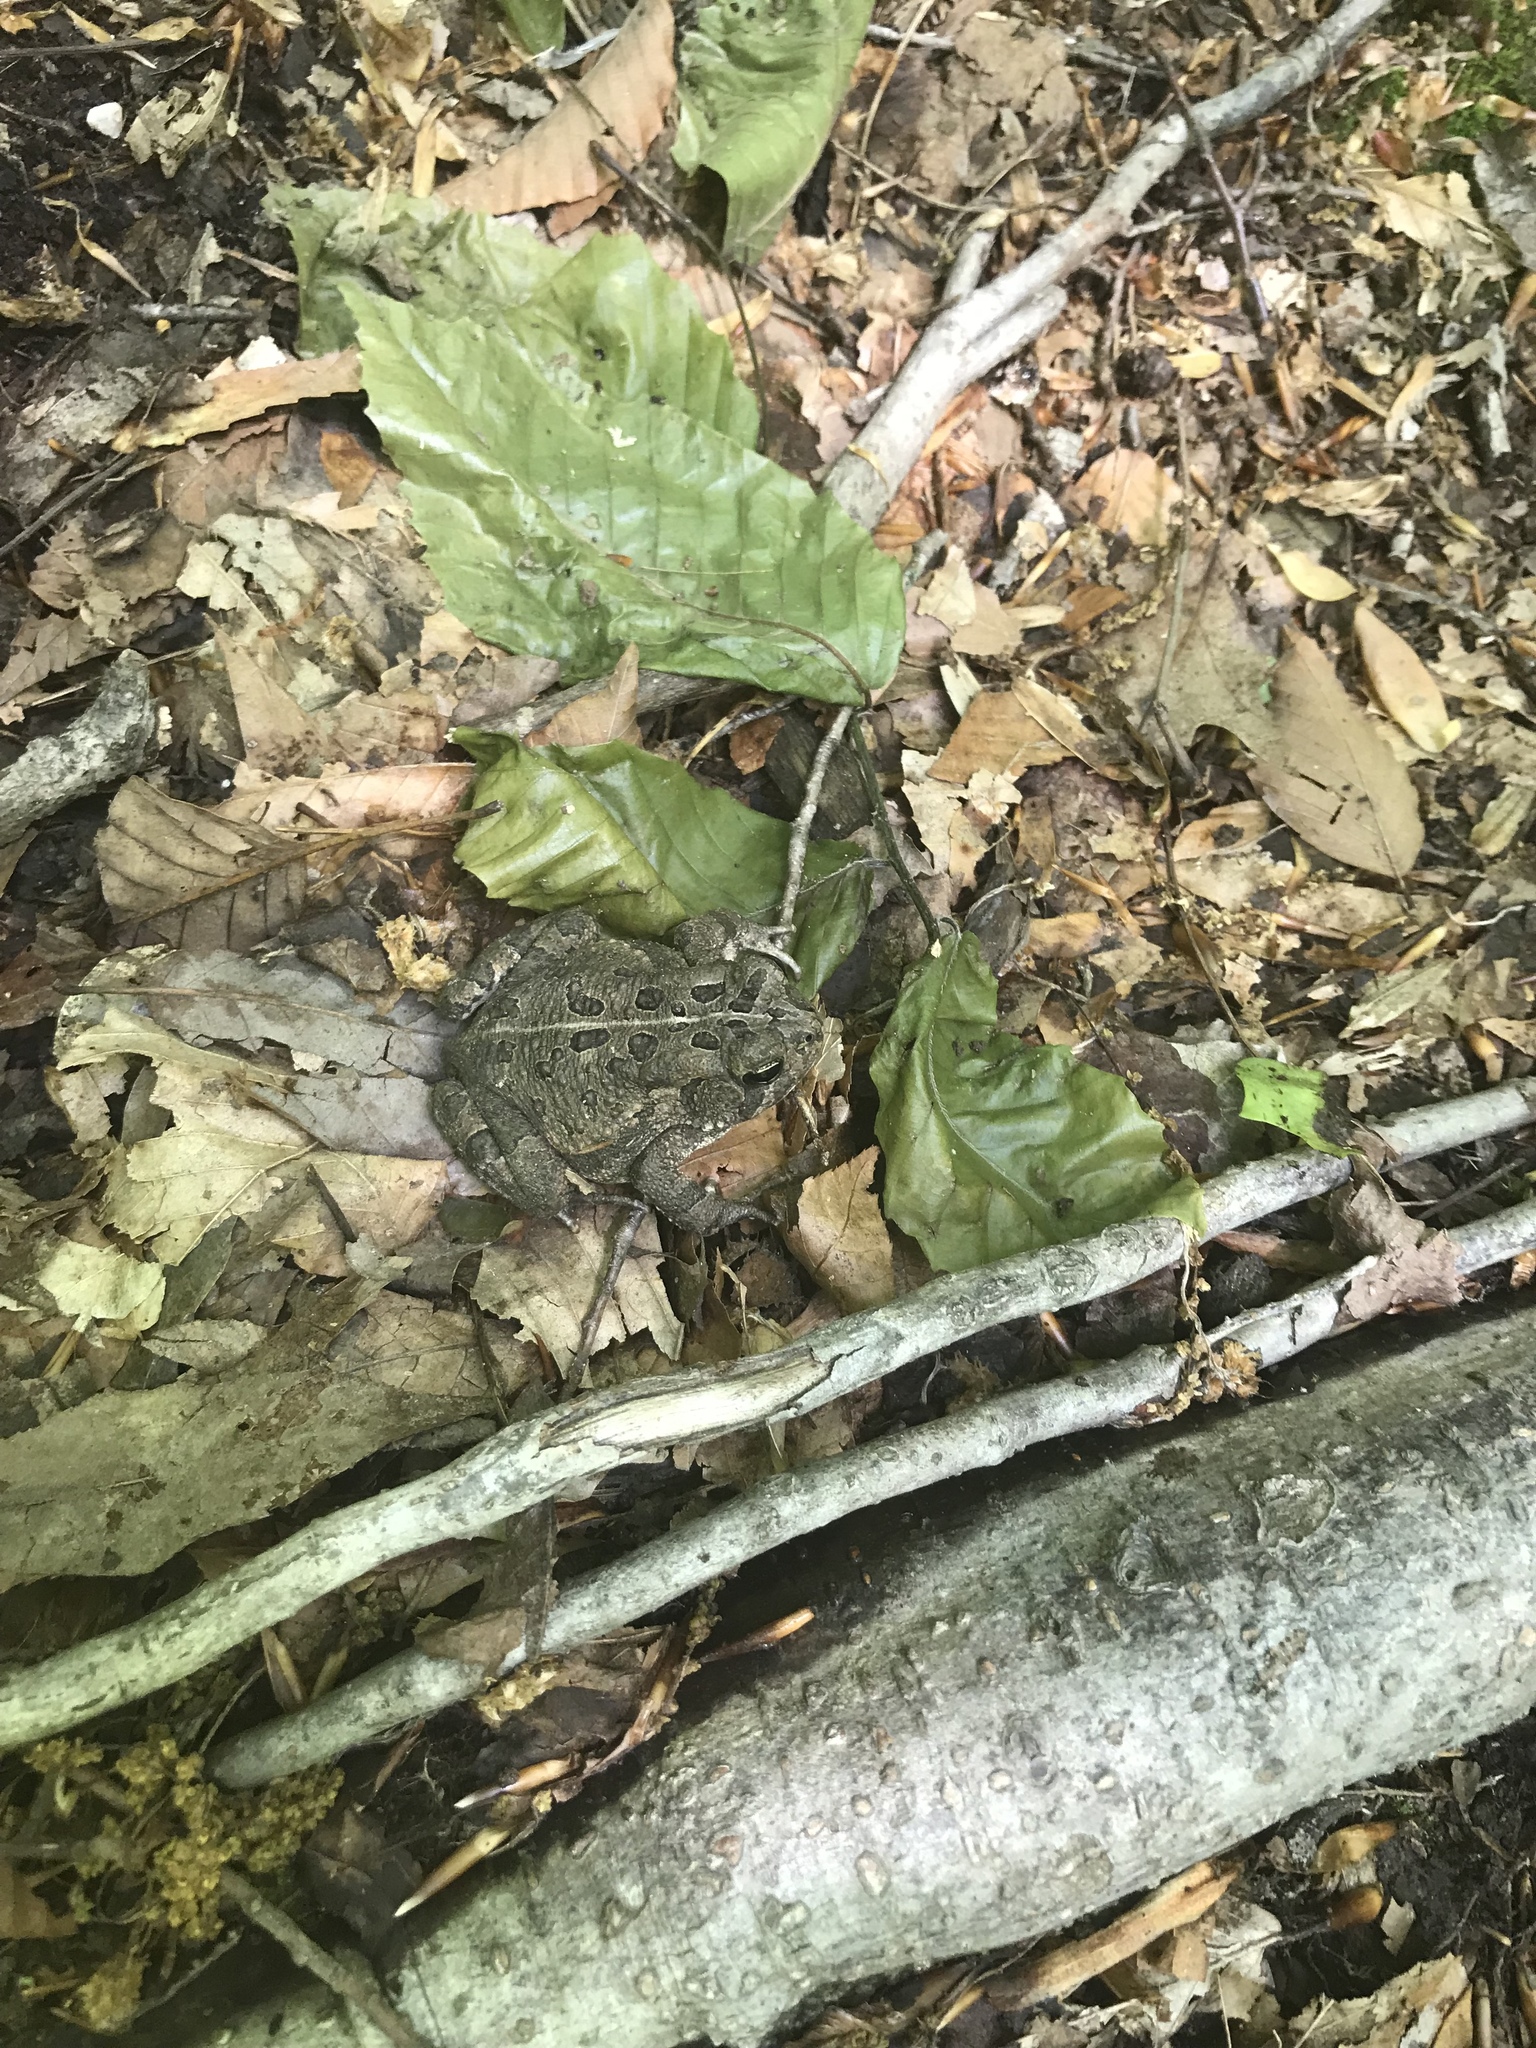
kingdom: Animalia
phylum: Chordata
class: Amphibia
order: Anura
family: Bufonidae
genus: Anaxyrus
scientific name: Anaxyrus fowleri
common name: Fowler's toad
